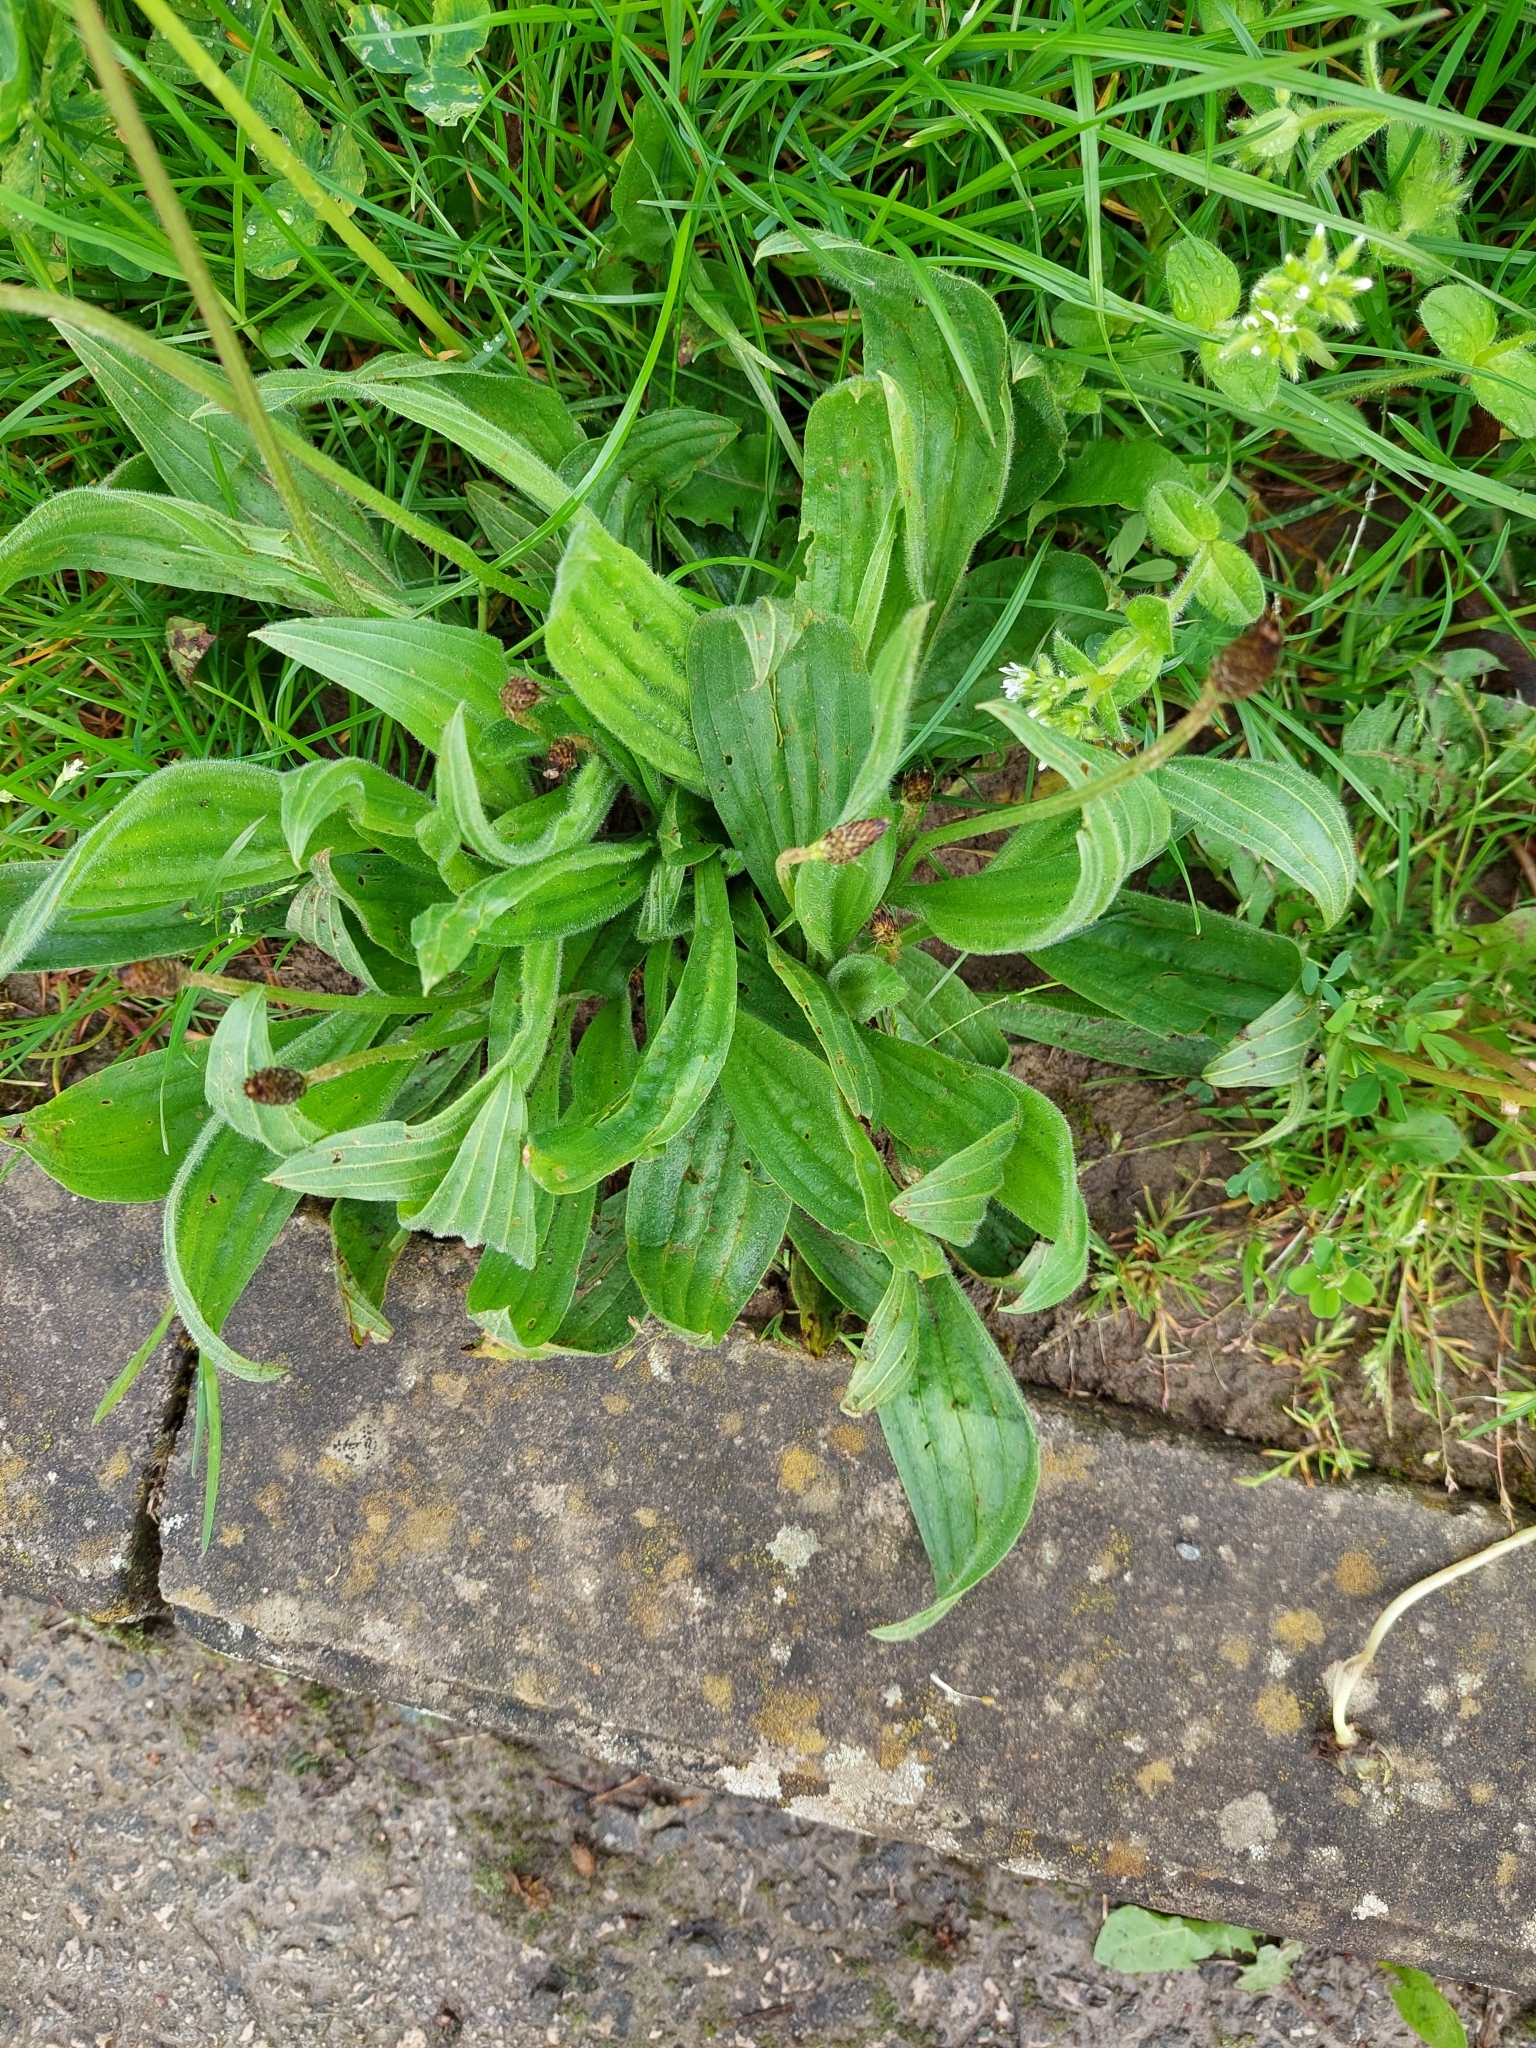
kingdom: Plantae
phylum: Tracheophyta
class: Magnoliopsida
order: Lamiales
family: Plantaginaceae
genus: Plantago
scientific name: Plantago lanceolata
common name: Ribwort plantain
